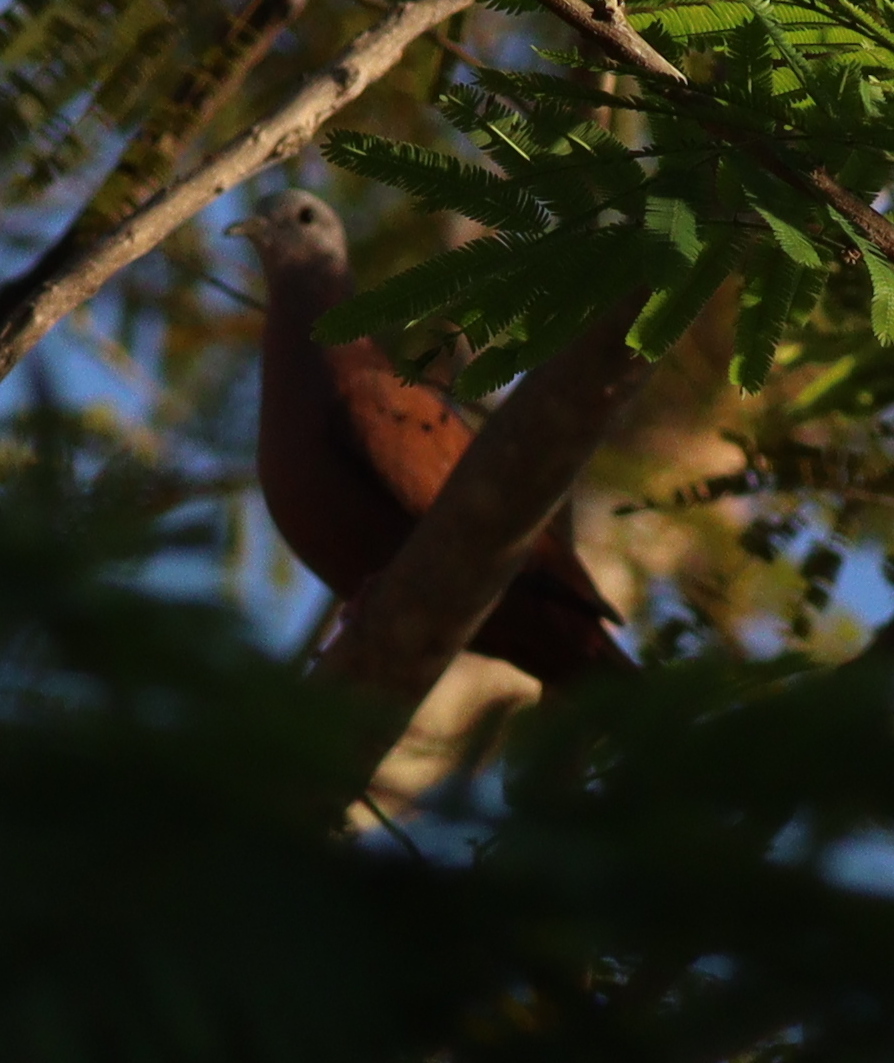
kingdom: Animalia
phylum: Chordata
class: Aves
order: Columbiformes
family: Columbidae
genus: Columbina
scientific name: Columbina talpacoti
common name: Ruddy ground dove
